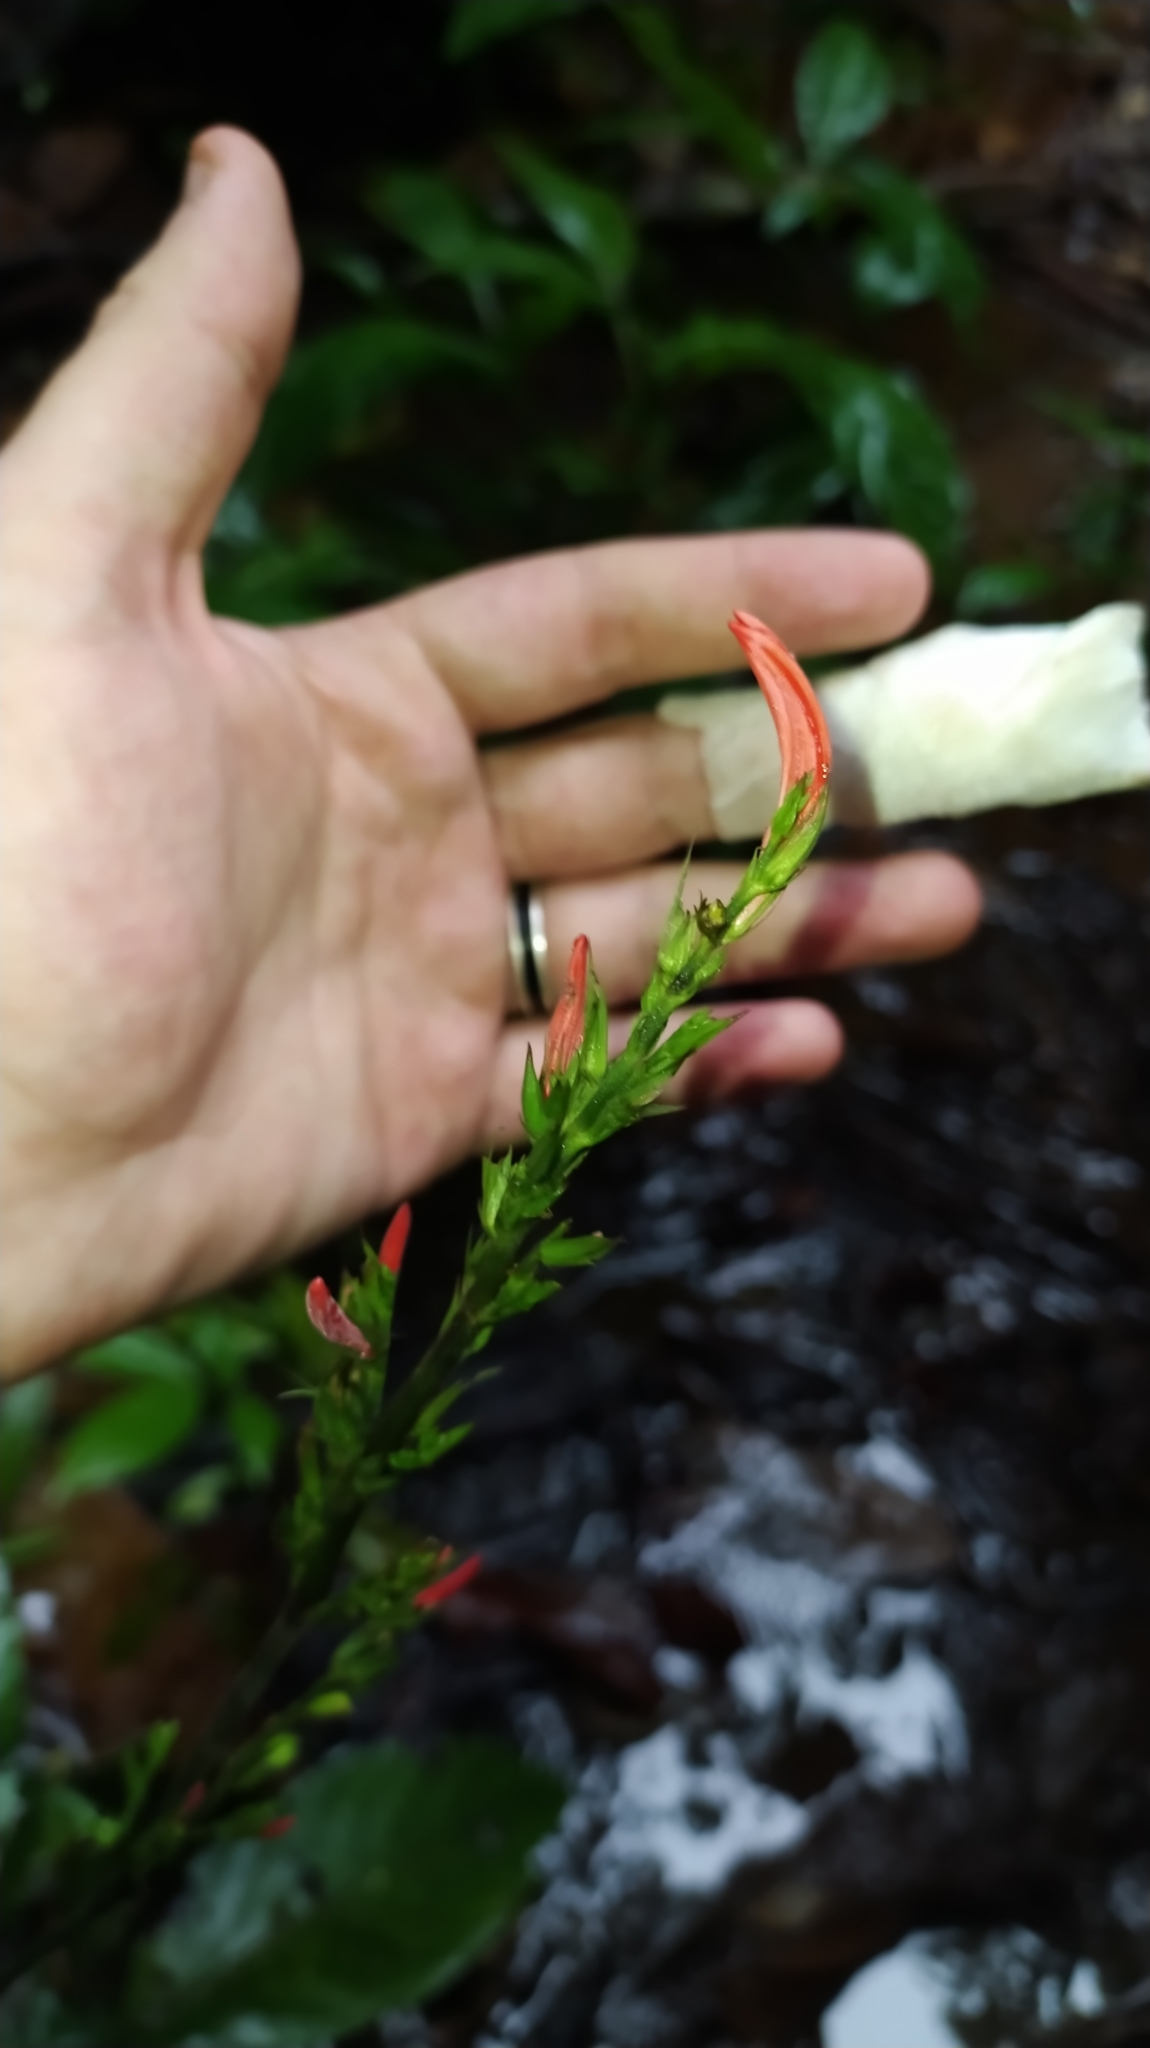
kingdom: Plantae
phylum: Tracheophyta
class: Magnoliopsida
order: Lamiales
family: Acanthaceae
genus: Dianthera
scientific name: Dianthera calycina
